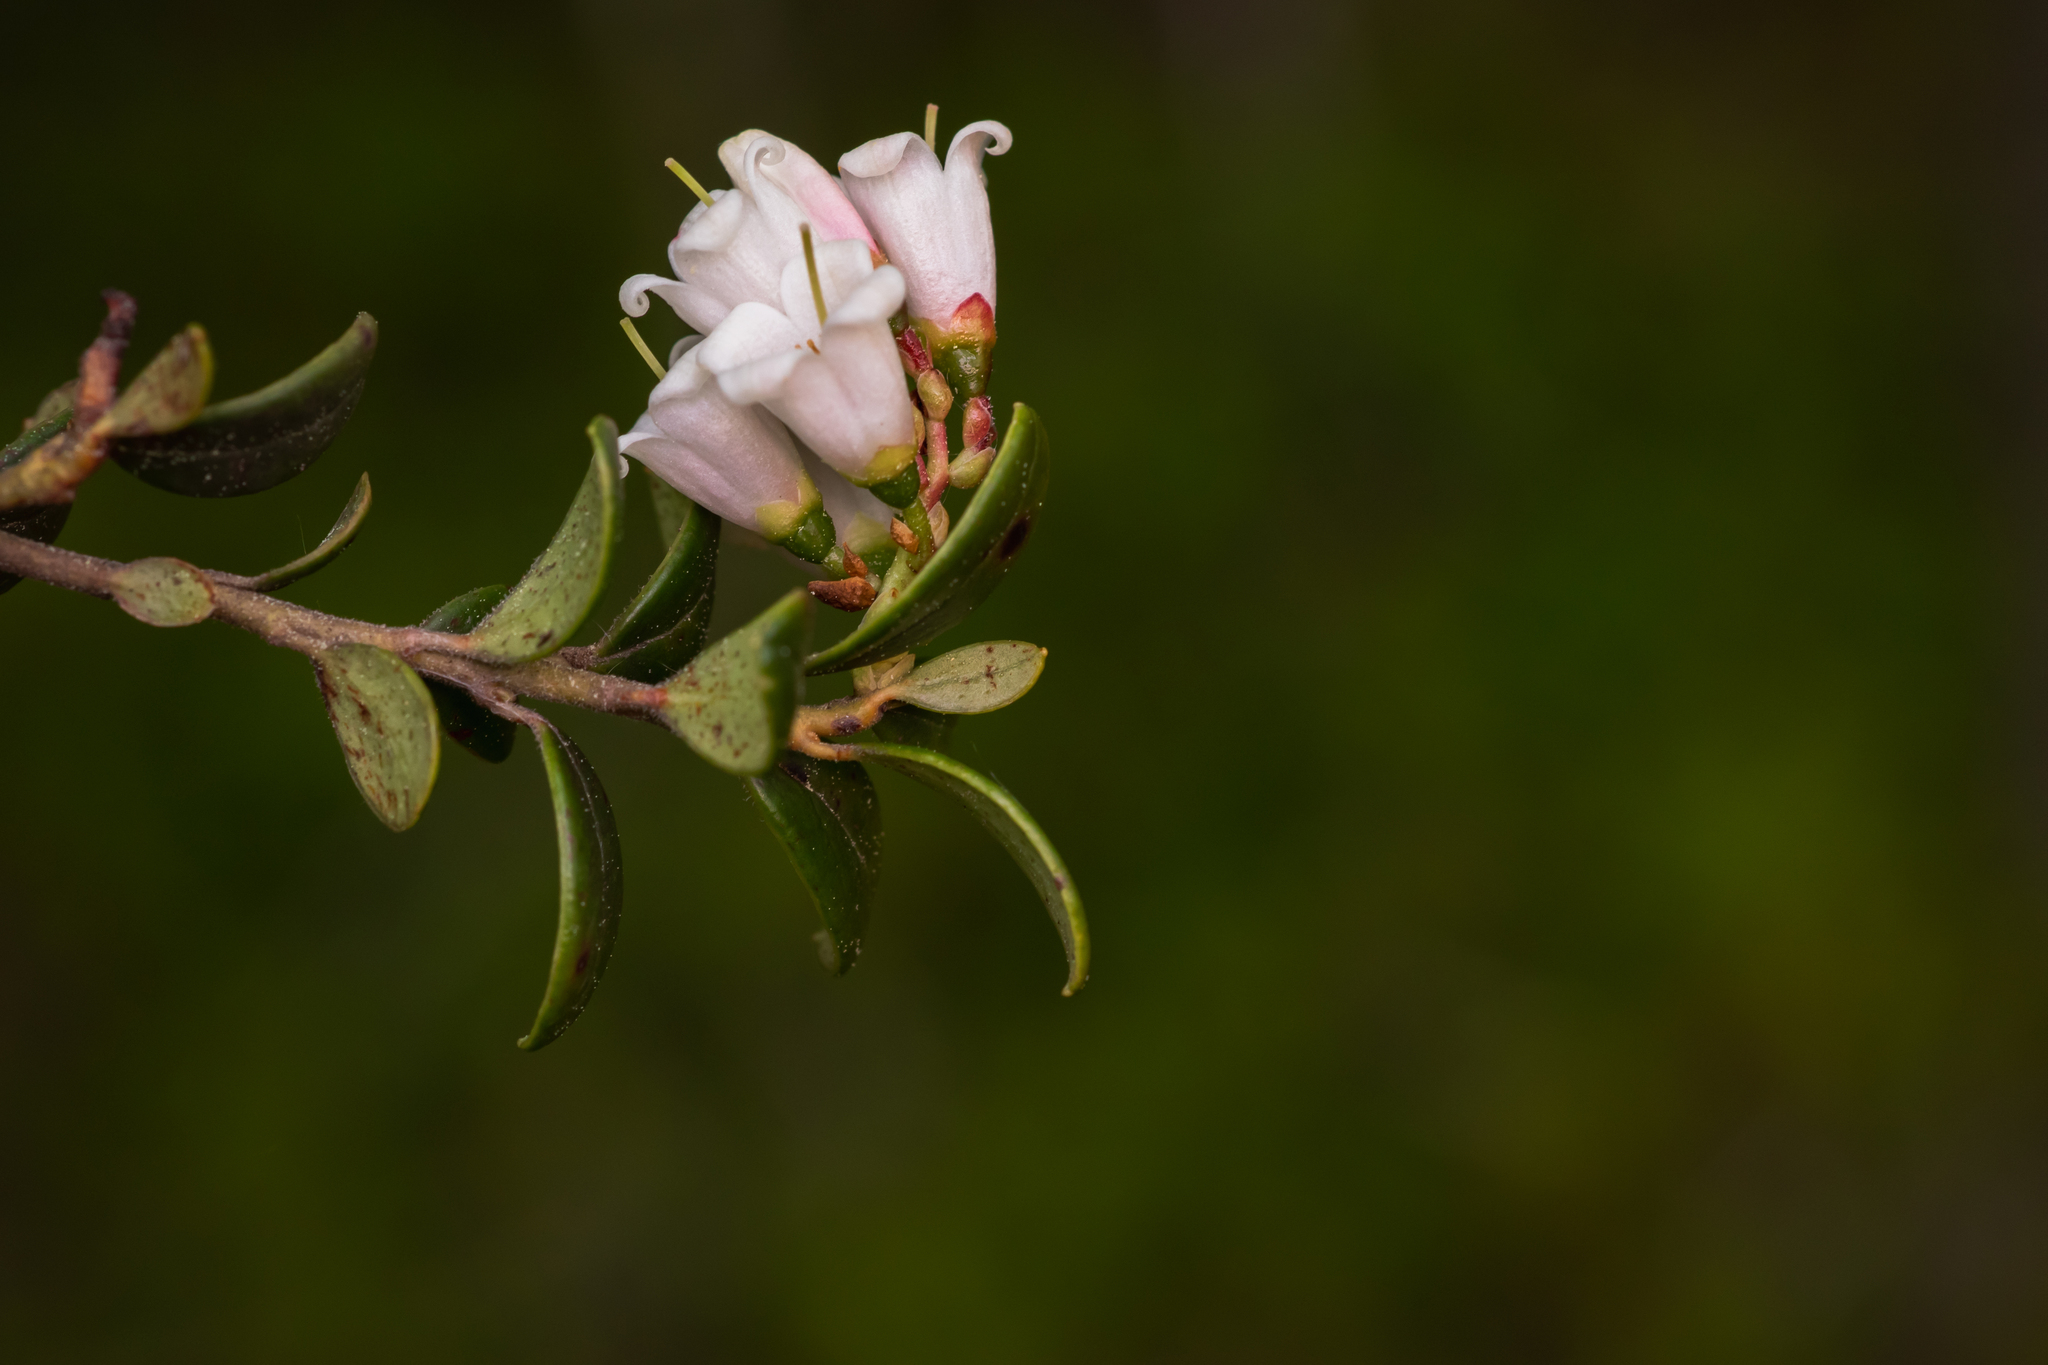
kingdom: Plantae
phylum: Tracheophyta
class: Magnoliopsida
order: Ericales
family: Ericaceae
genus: Vaccinium
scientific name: Vaccinium vitis-idaea
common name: Cowberry
